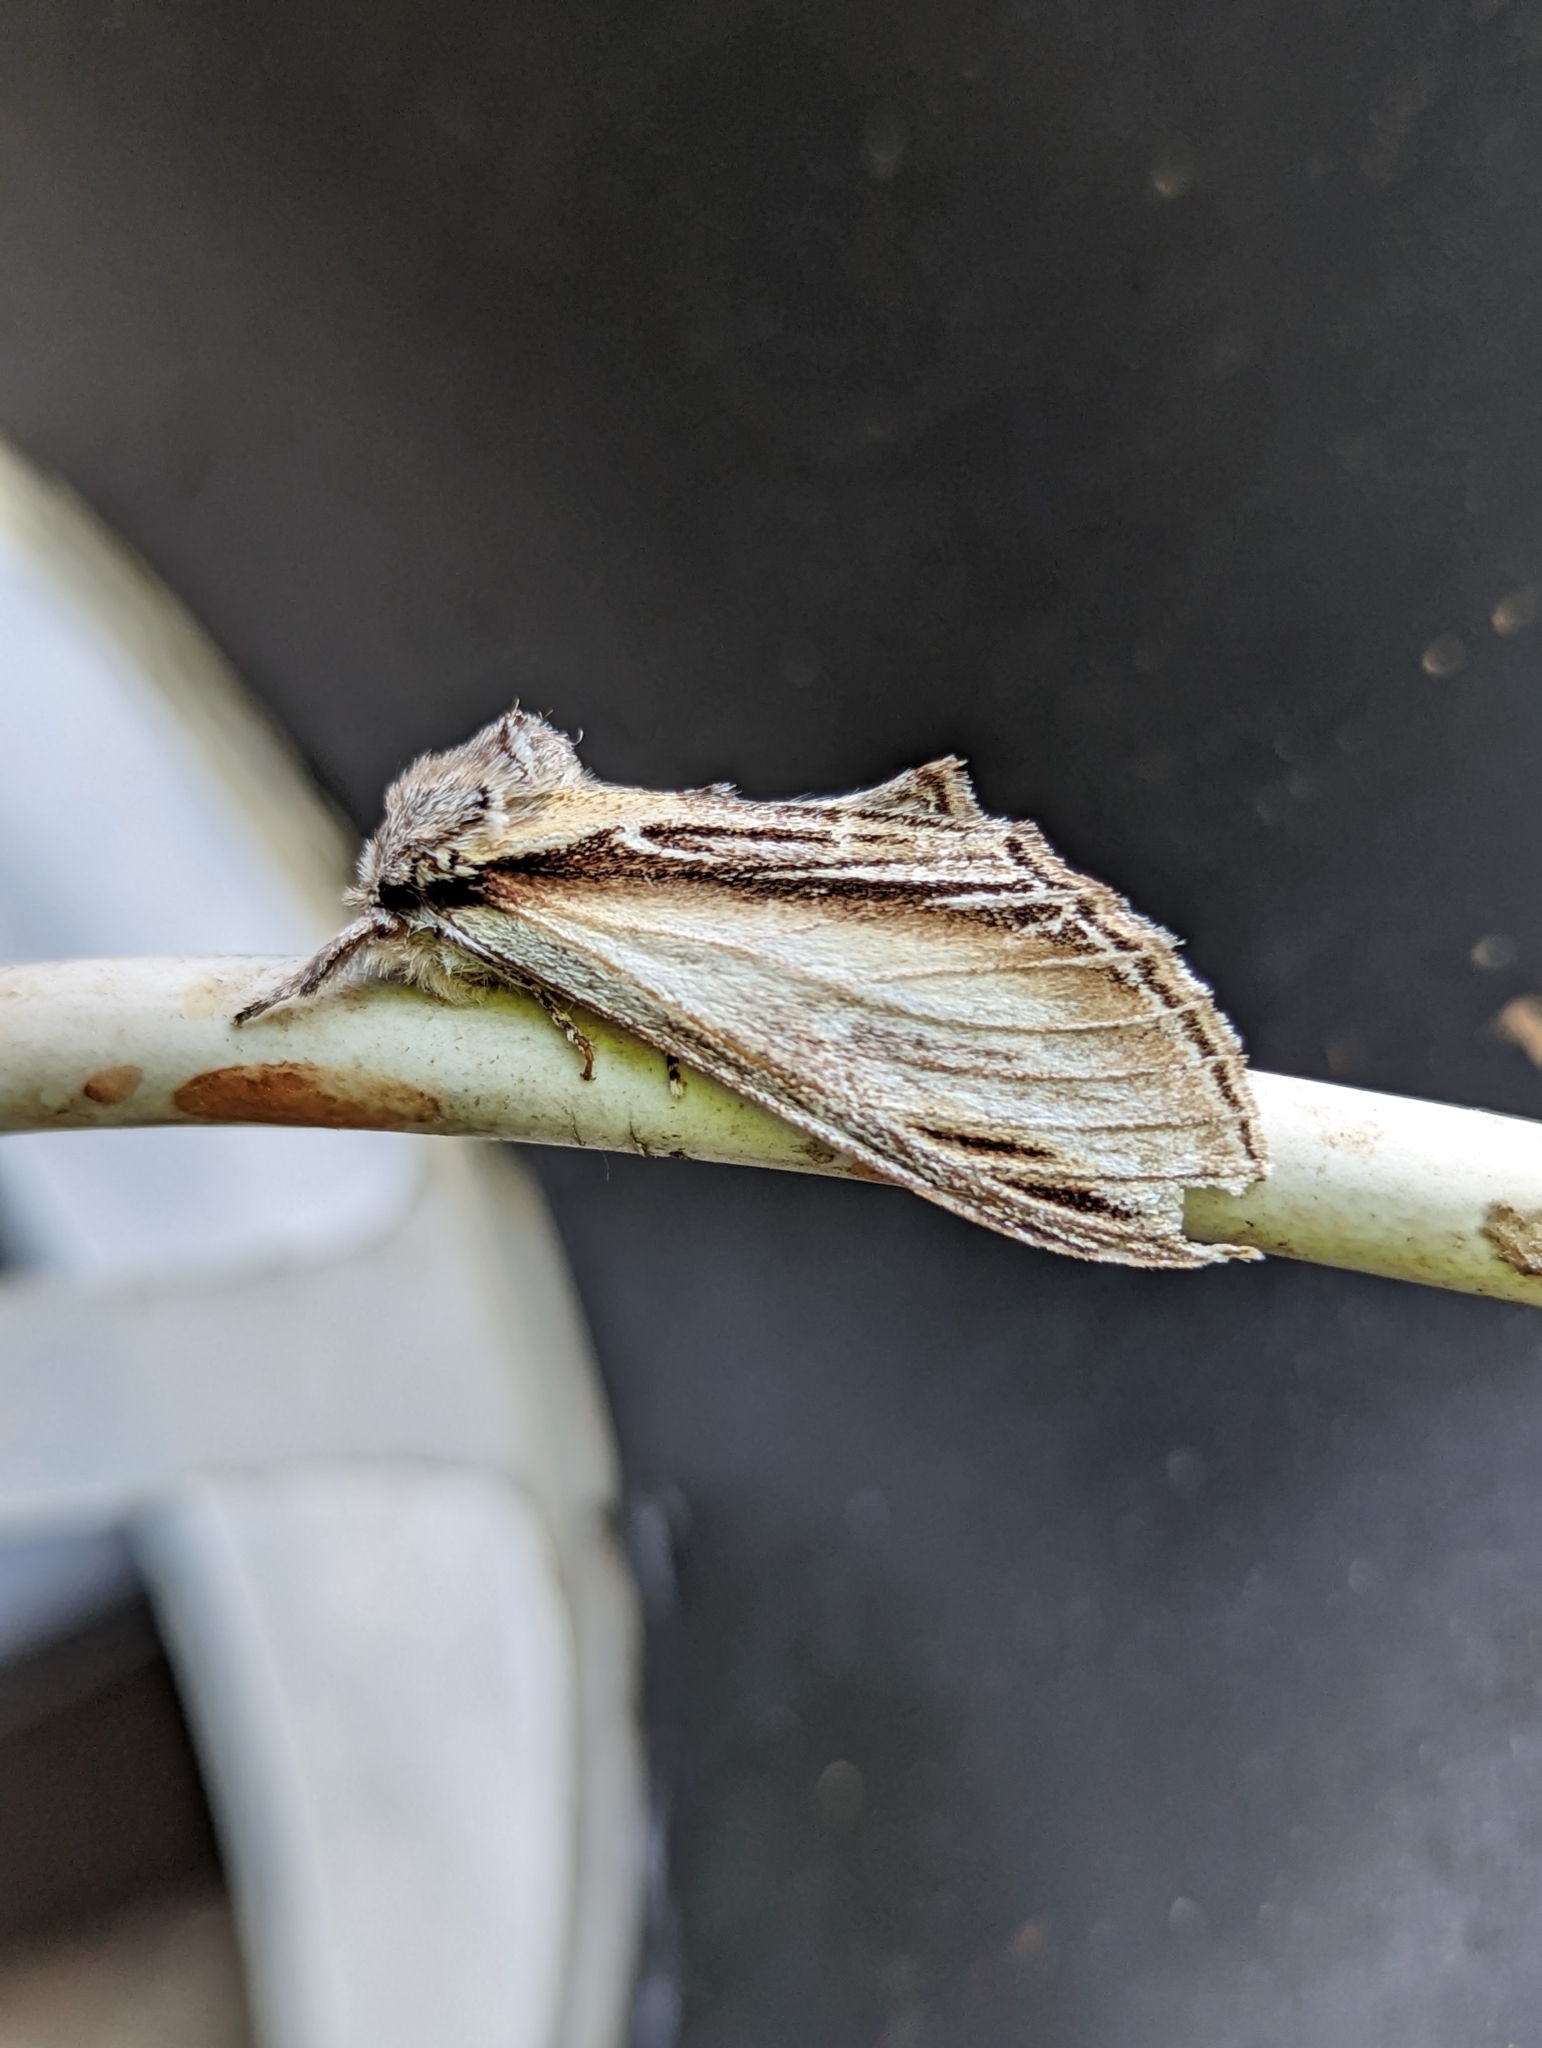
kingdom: Animalia
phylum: Arthropoda
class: Insecta
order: Lepidoptera
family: Notodontidae
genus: Pheosia
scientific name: Pheosia tremula
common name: Swallow prominent
